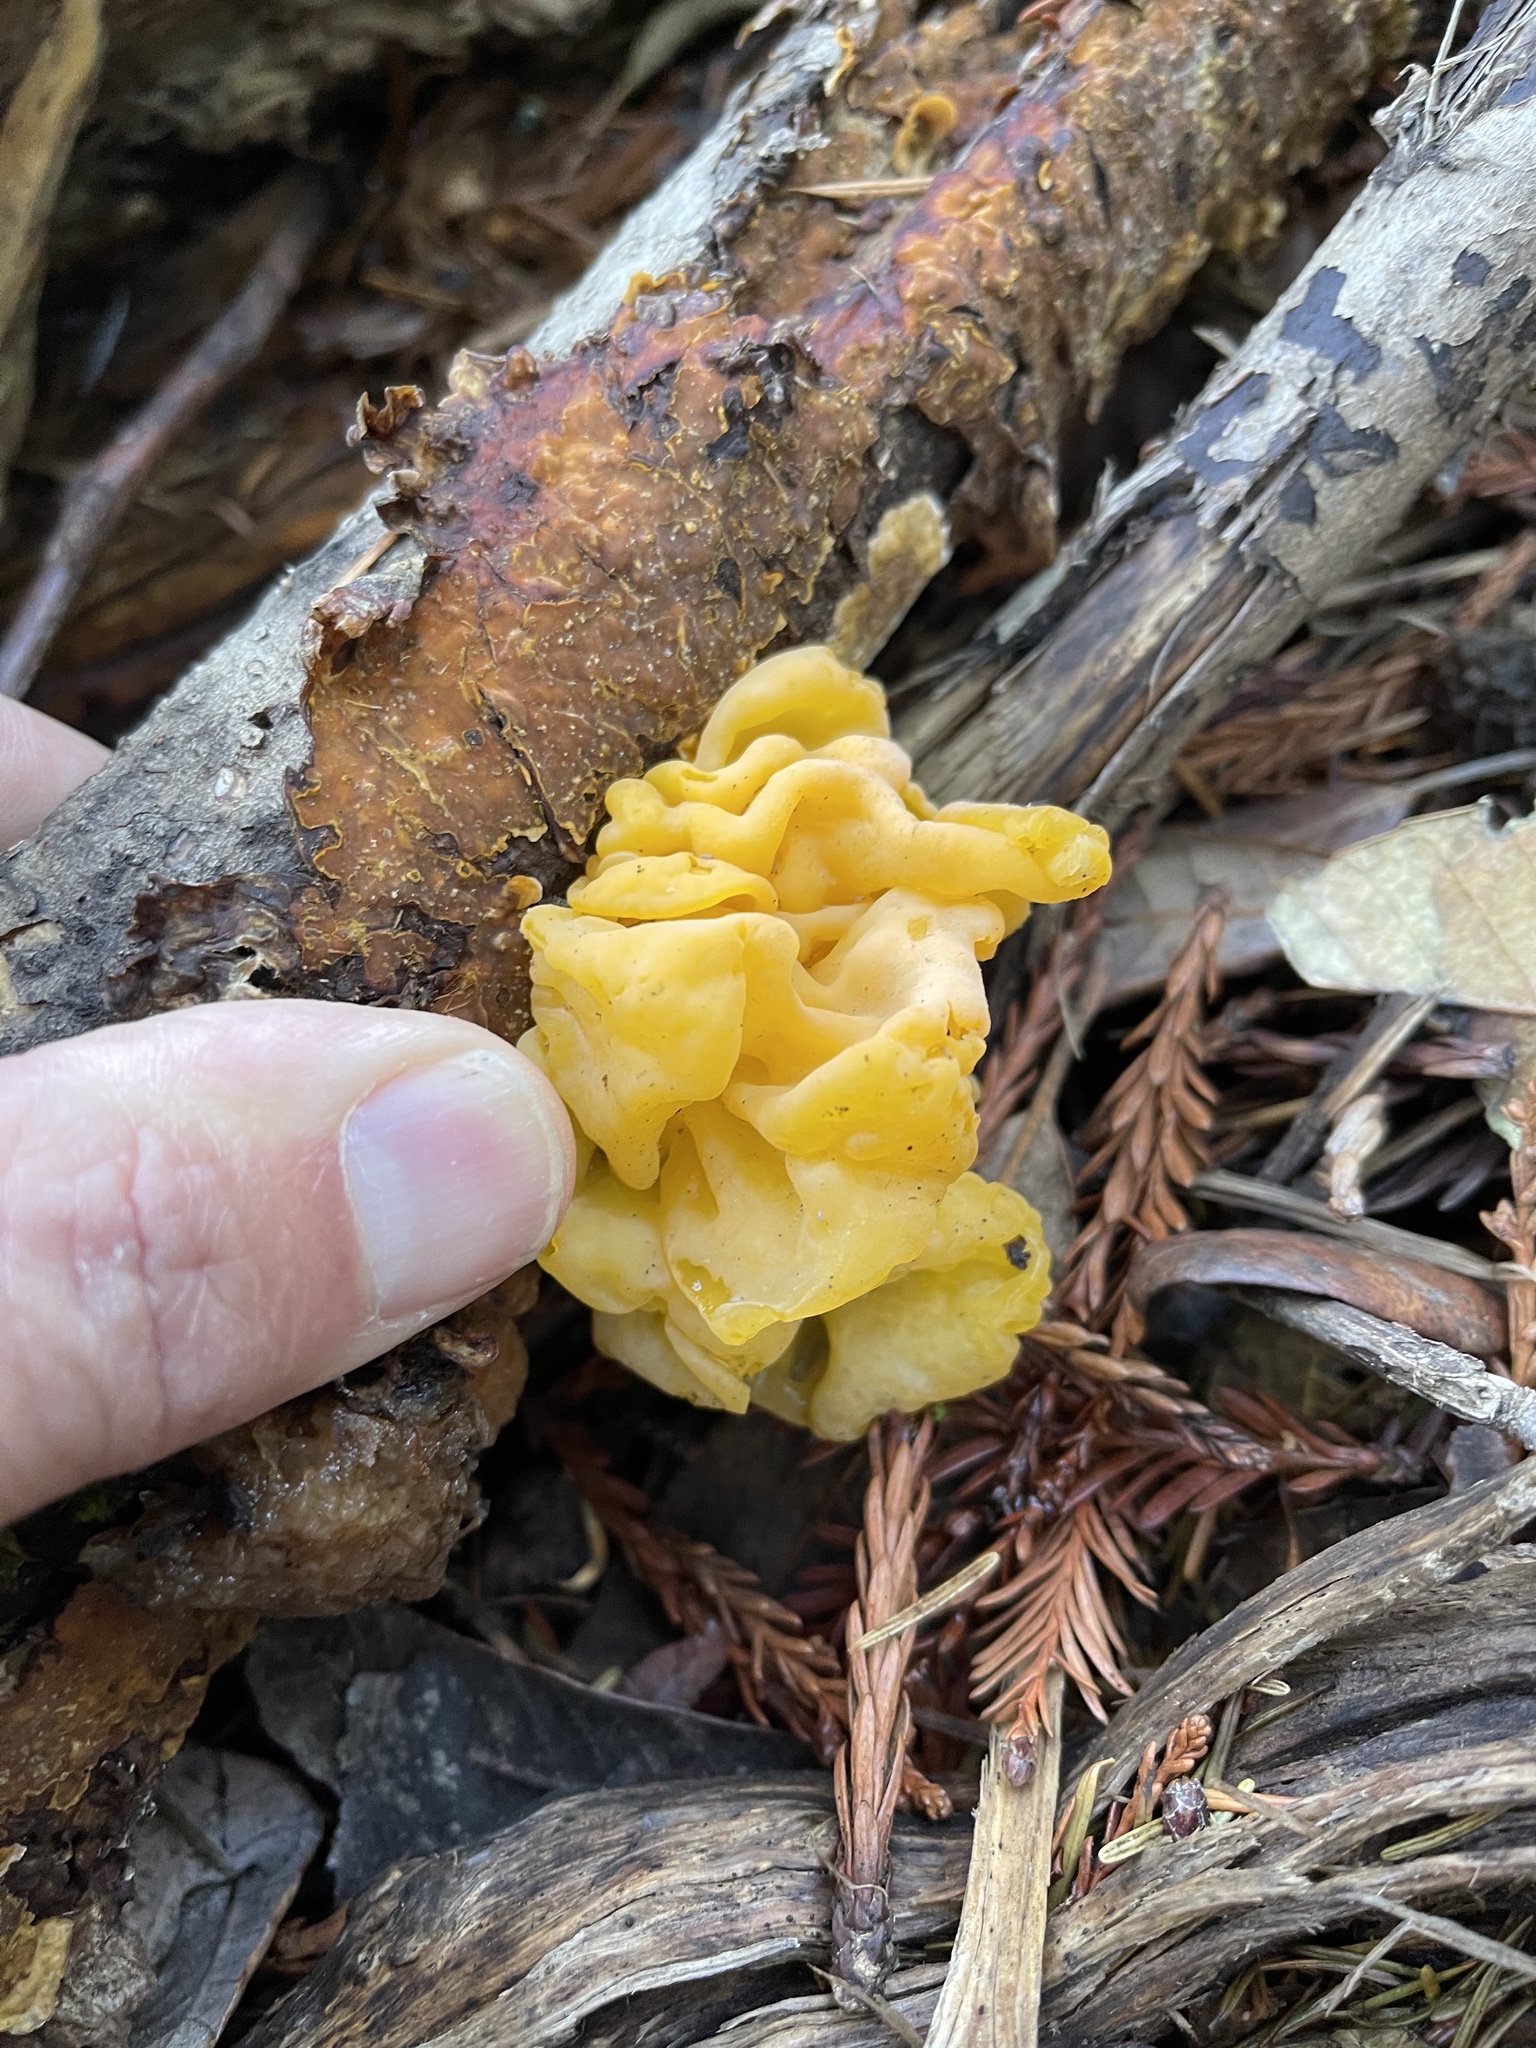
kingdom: Fungi
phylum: Basidiomycota
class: Tremellomycetes
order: Tremellales
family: Naemateliaceae
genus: Naematelia
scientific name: Naematelia aurantia
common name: Golden ear
